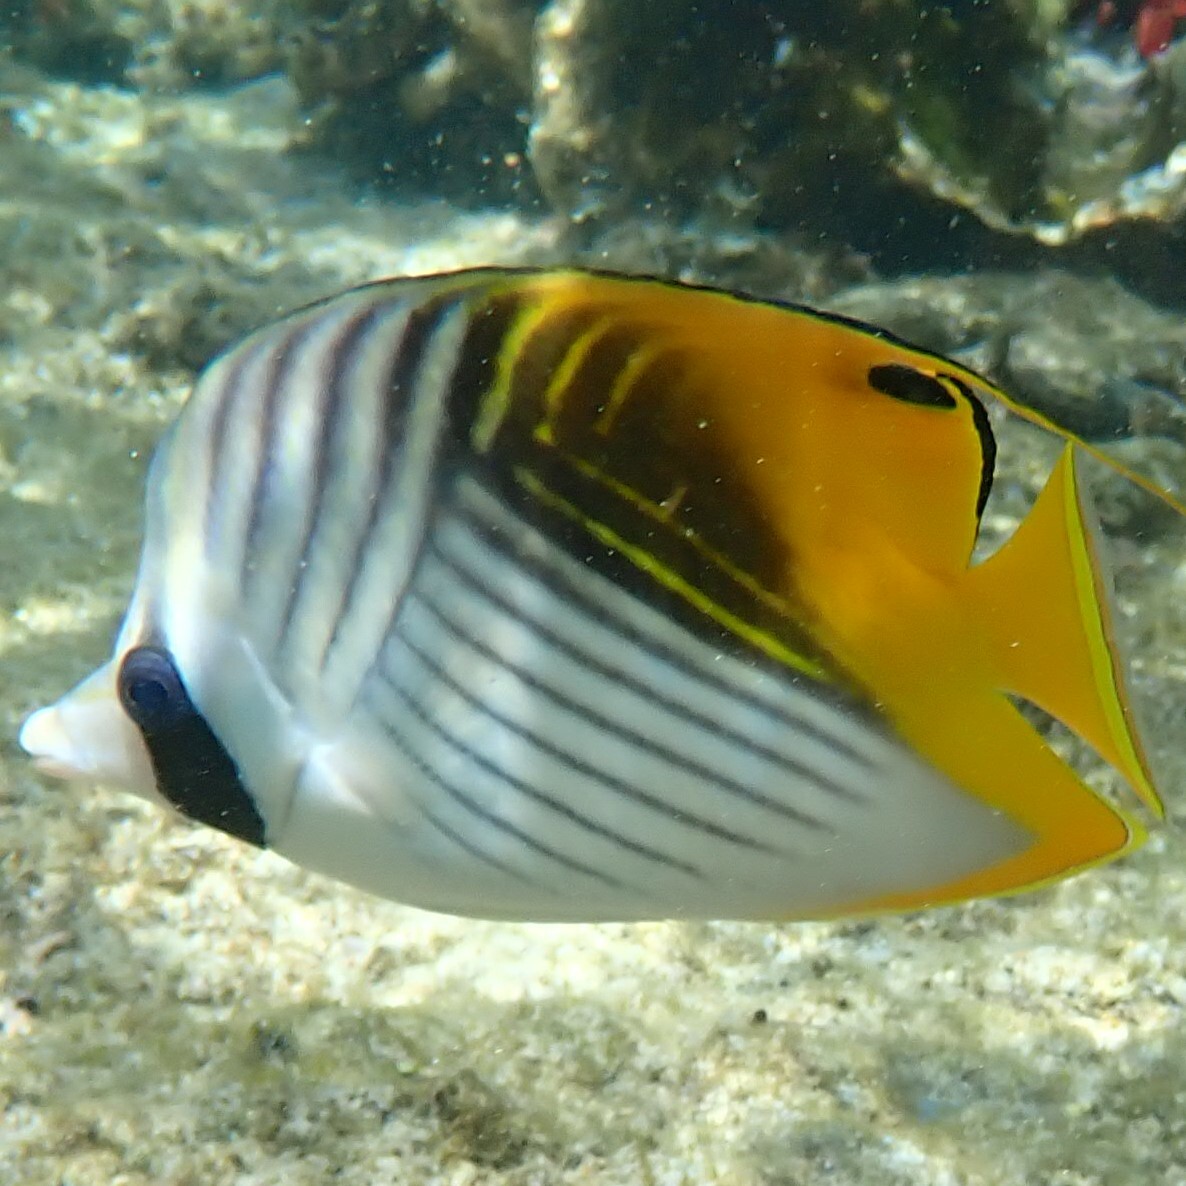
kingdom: Animalia
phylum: Chordata
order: Perciformes
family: Chaetodontidae
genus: Chaetodon
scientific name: Chaetodon auriga
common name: Threadfin butterflyfish
